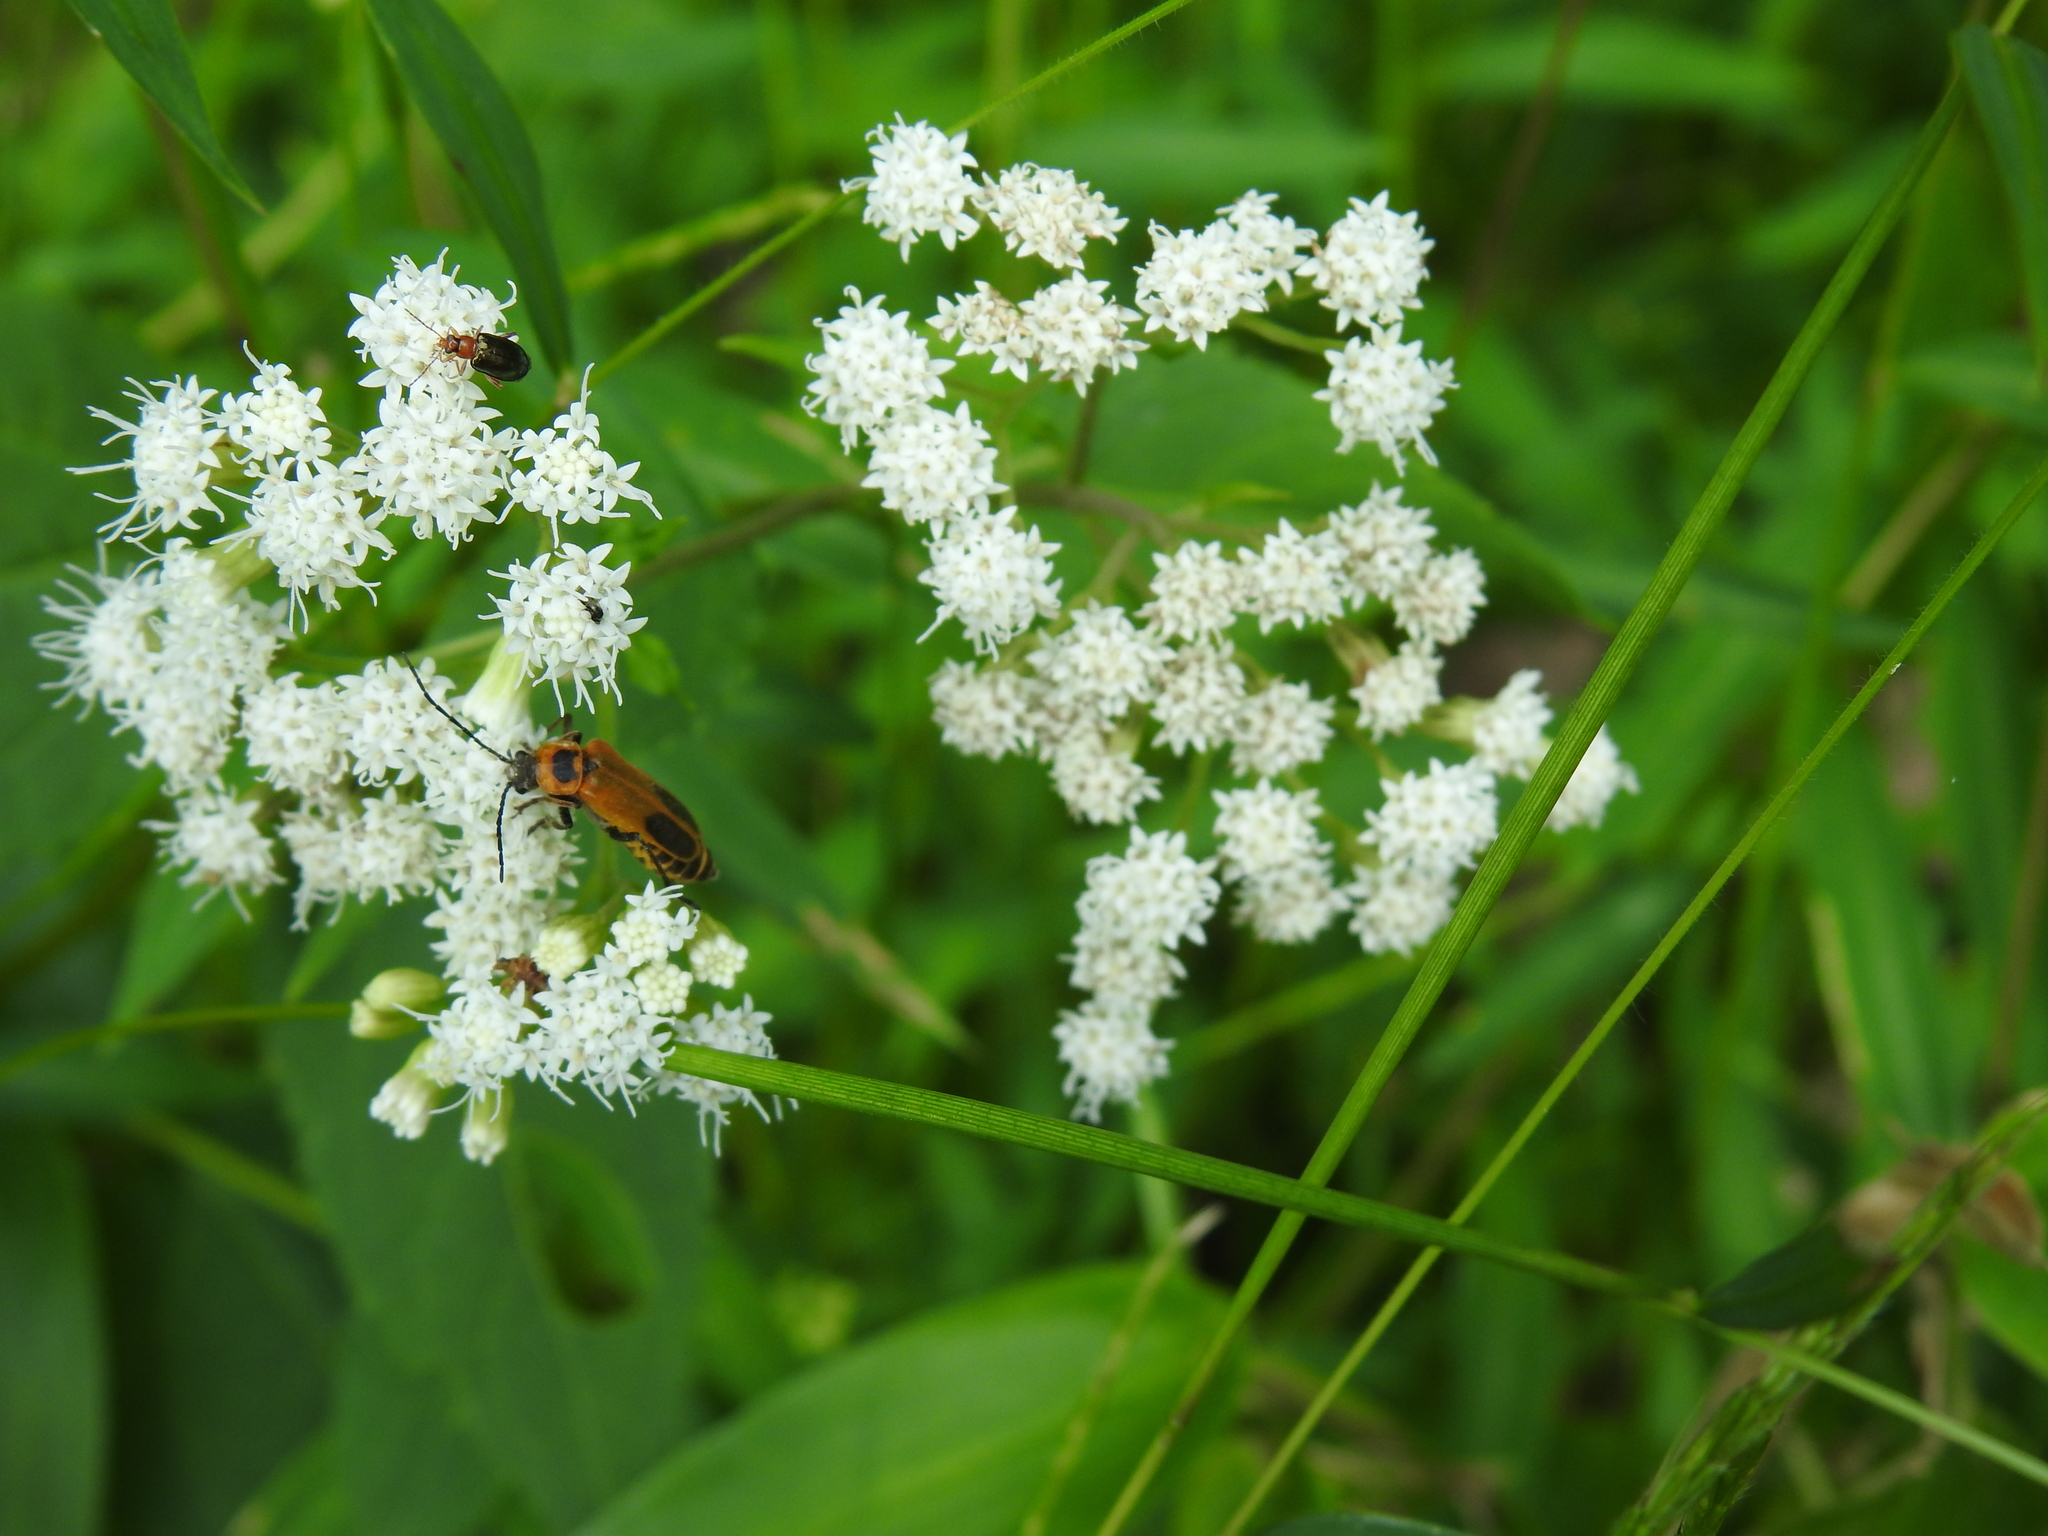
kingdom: Animalia
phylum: Arthropoda
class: Insecta
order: Coleoptera
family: Cantharidae
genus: Chauliognathus
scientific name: Chauliognathus pensylvanicus
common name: Goldenrod soldier beetle
